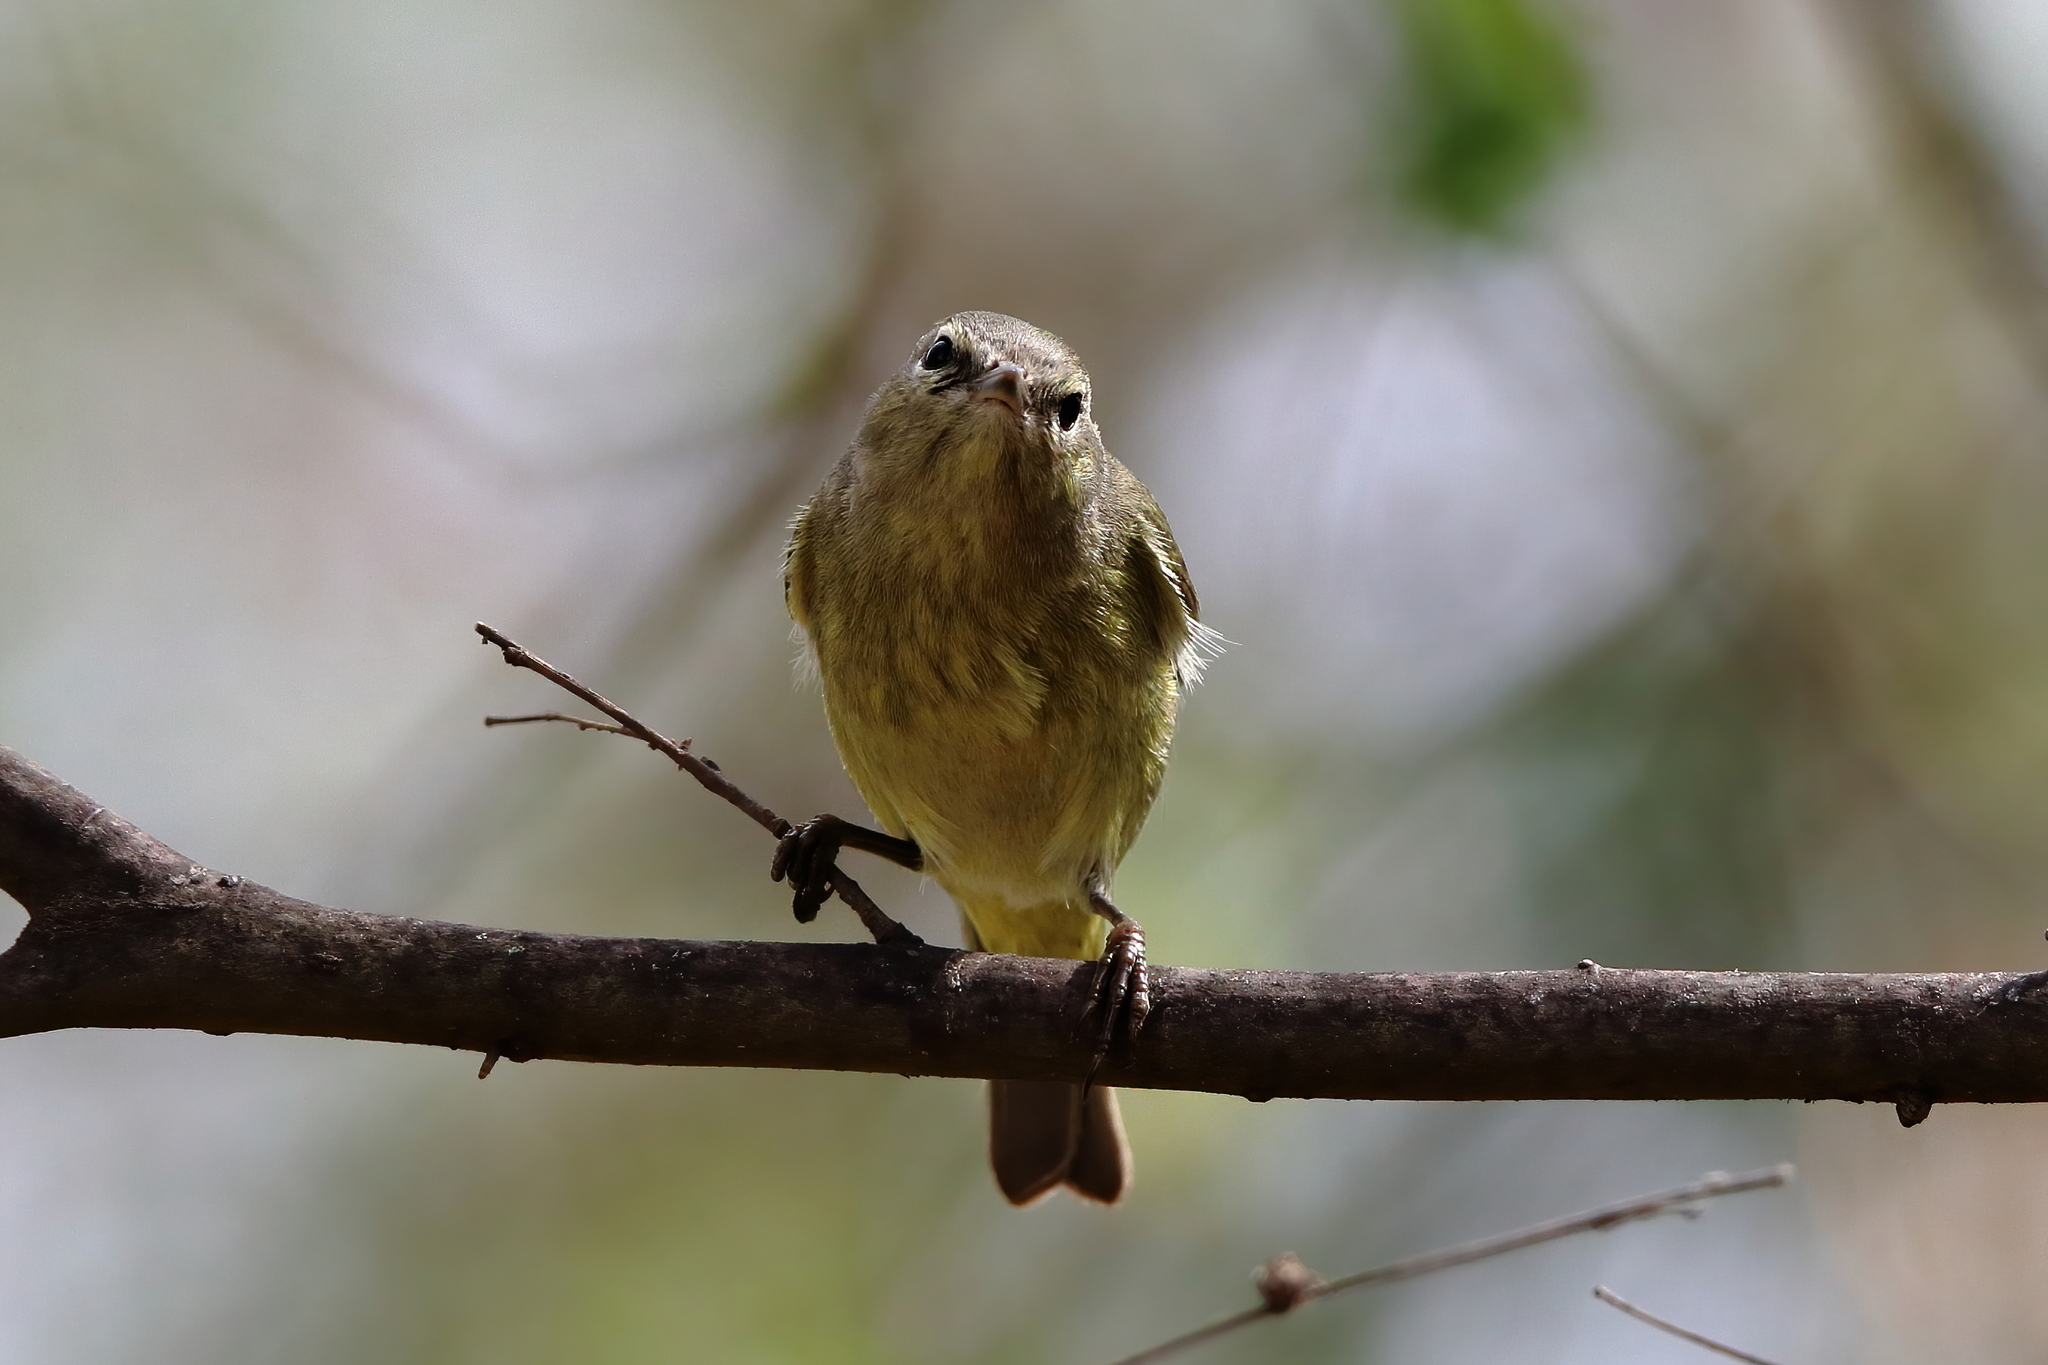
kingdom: Animalia
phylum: Chordata
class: Aves
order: Passeriformes
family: Parulidae
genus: Leiothlypis
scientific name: Leiothlypis celata
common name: Orange-crowned warbler
